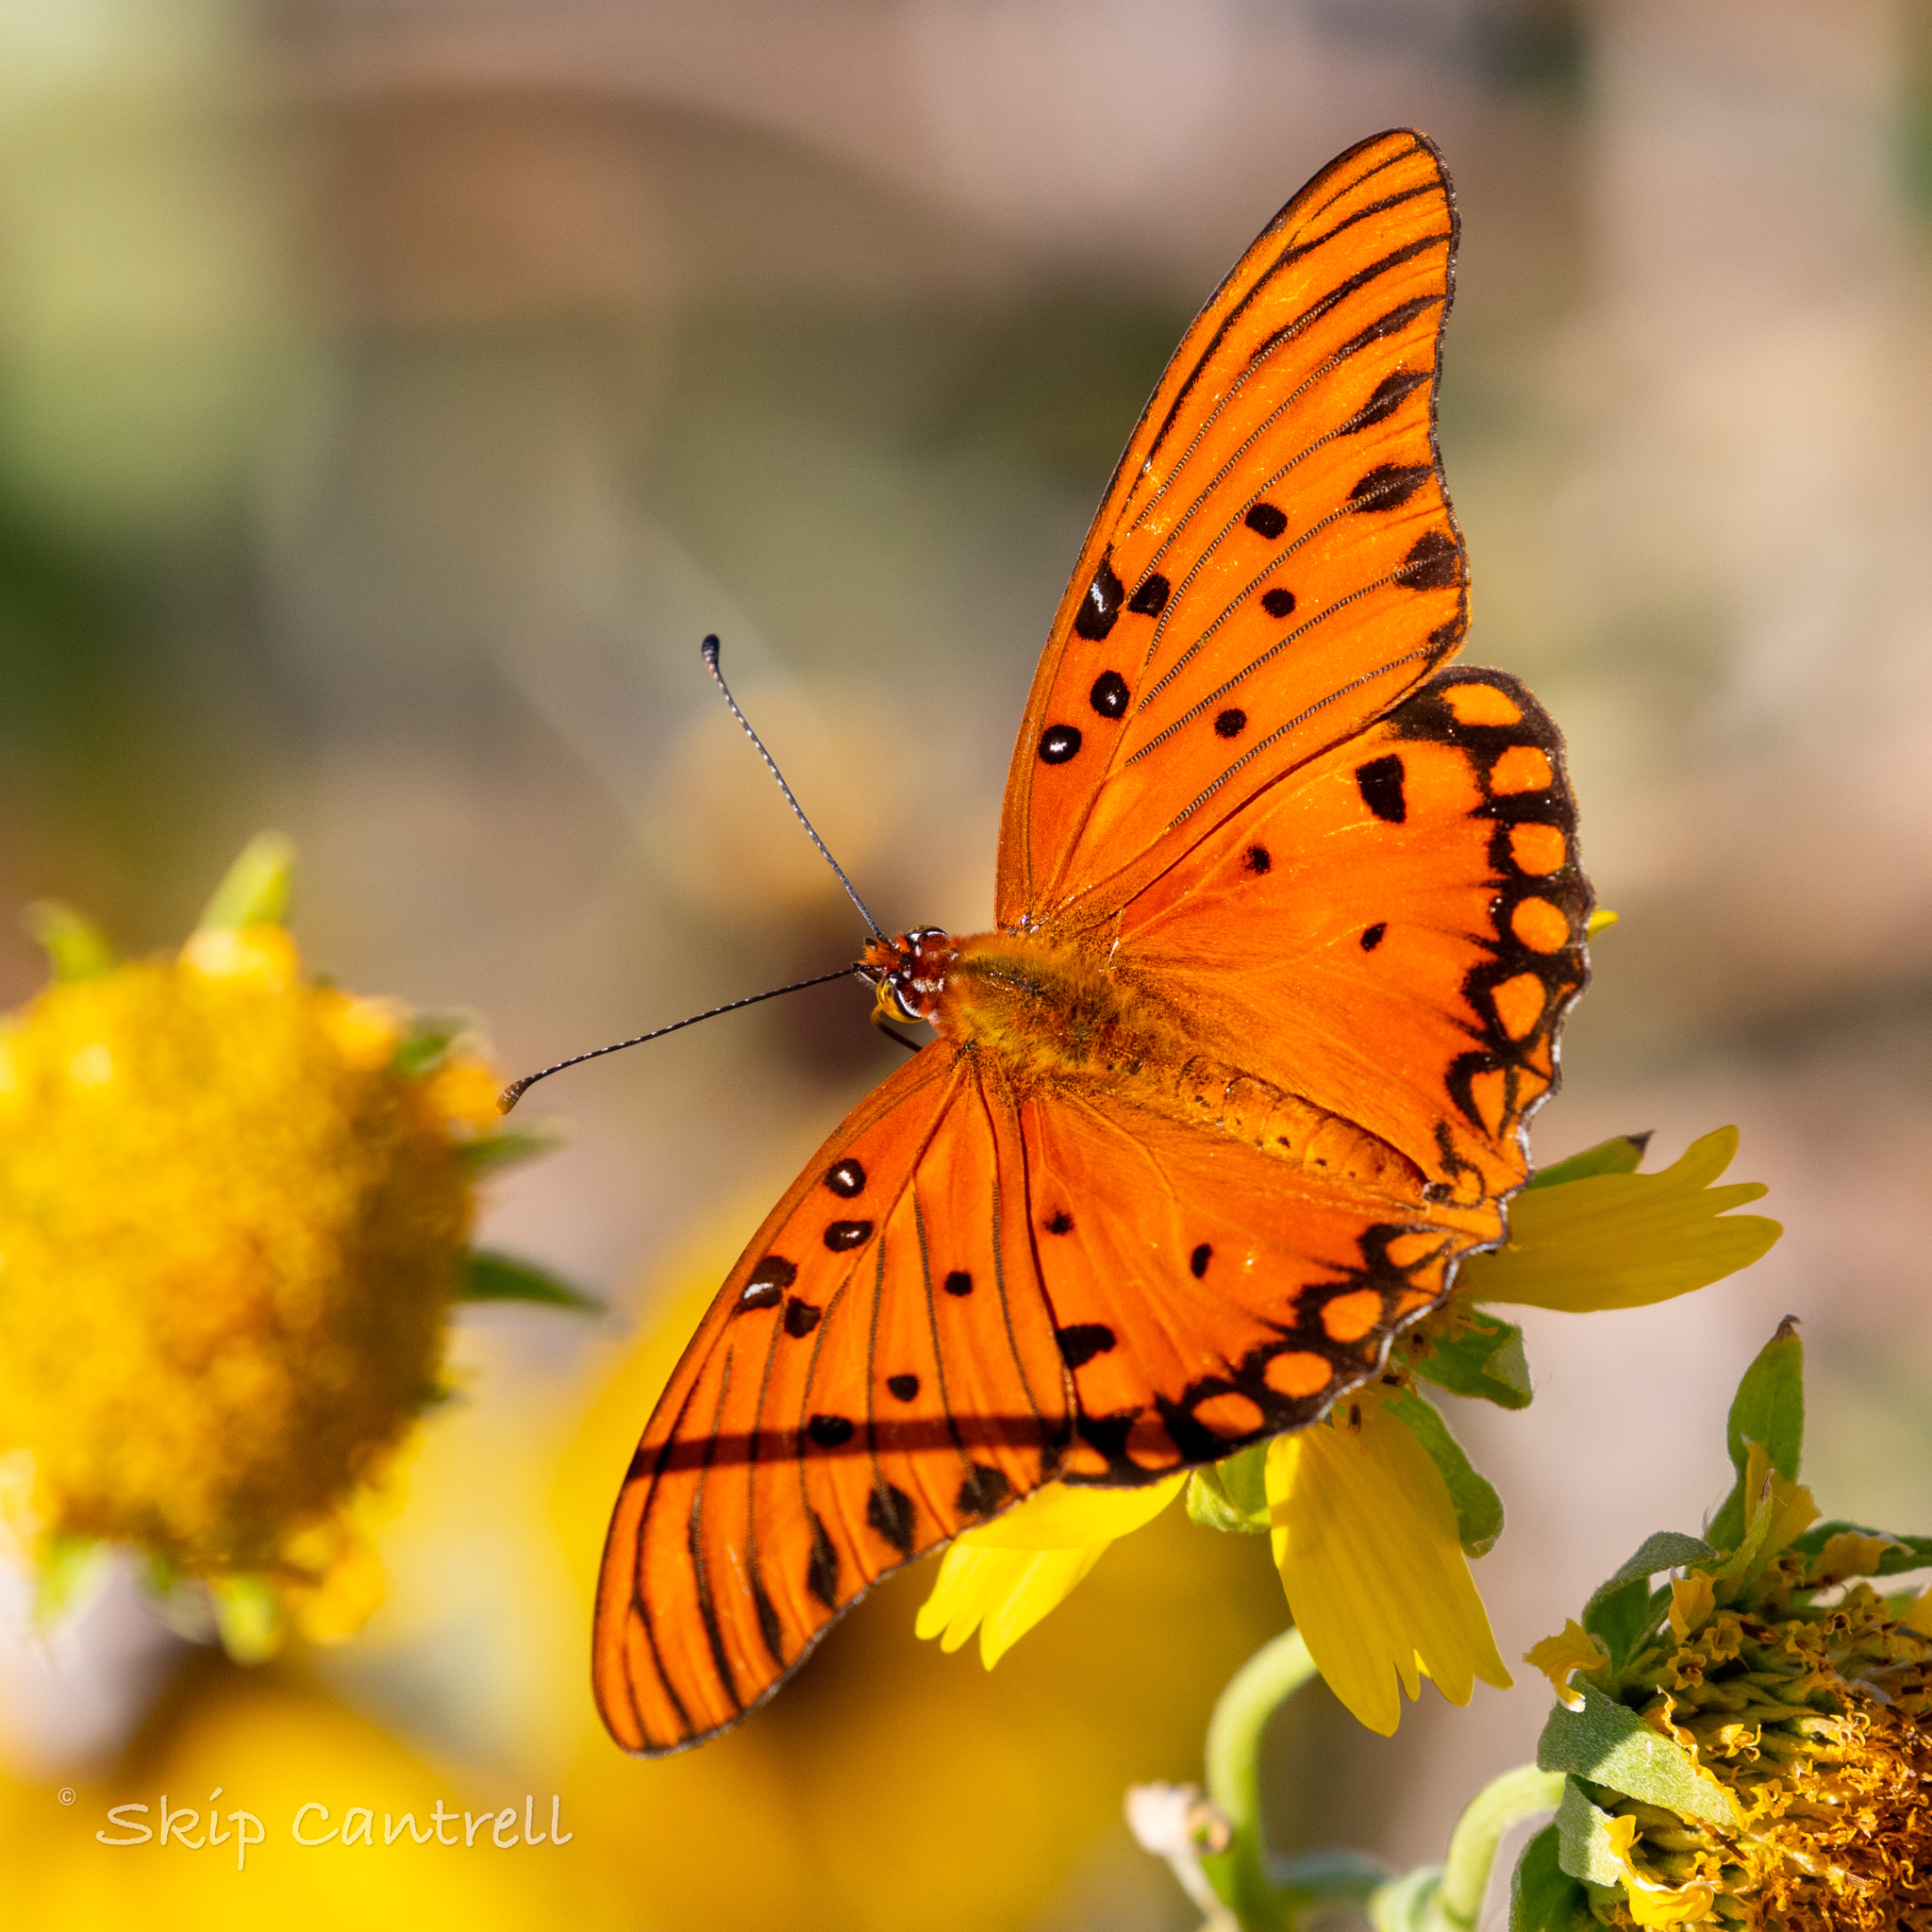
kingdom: Animalia
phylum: Arthropoda
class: Insecta
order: Lepidoptera
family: Nymphalidae
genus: Dione
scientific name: Dione vanillae
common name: Gulf fritillary
